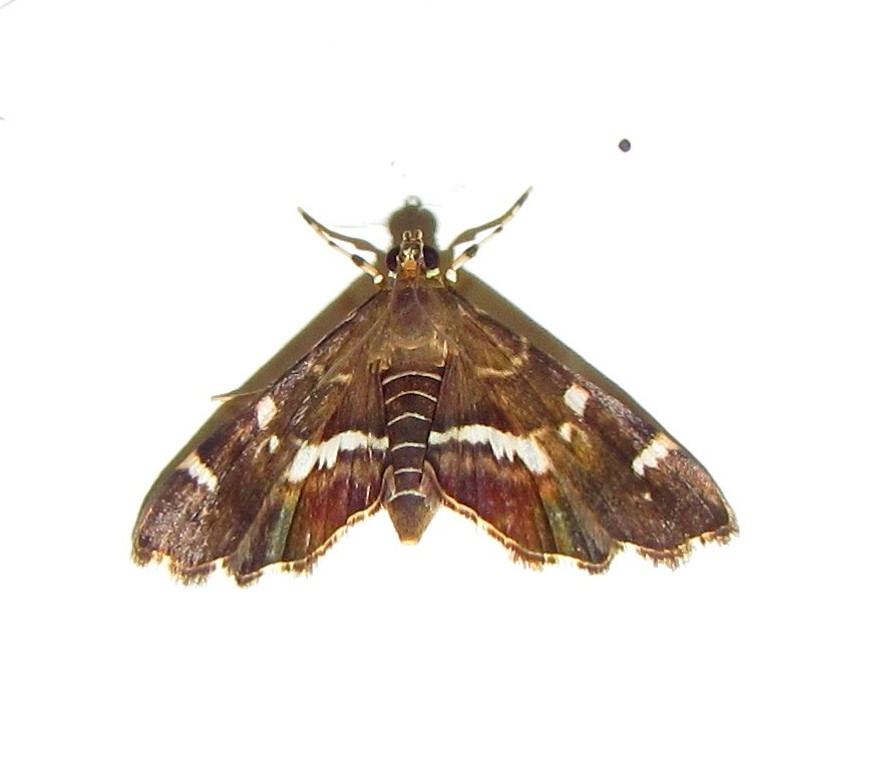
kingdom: Animalia
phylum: Arthropoda
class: Insecta
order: Lepidoptera
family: Crambidae
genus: Hymenia
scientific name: Hymenia perspectalis
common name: Spotted beet webworm
